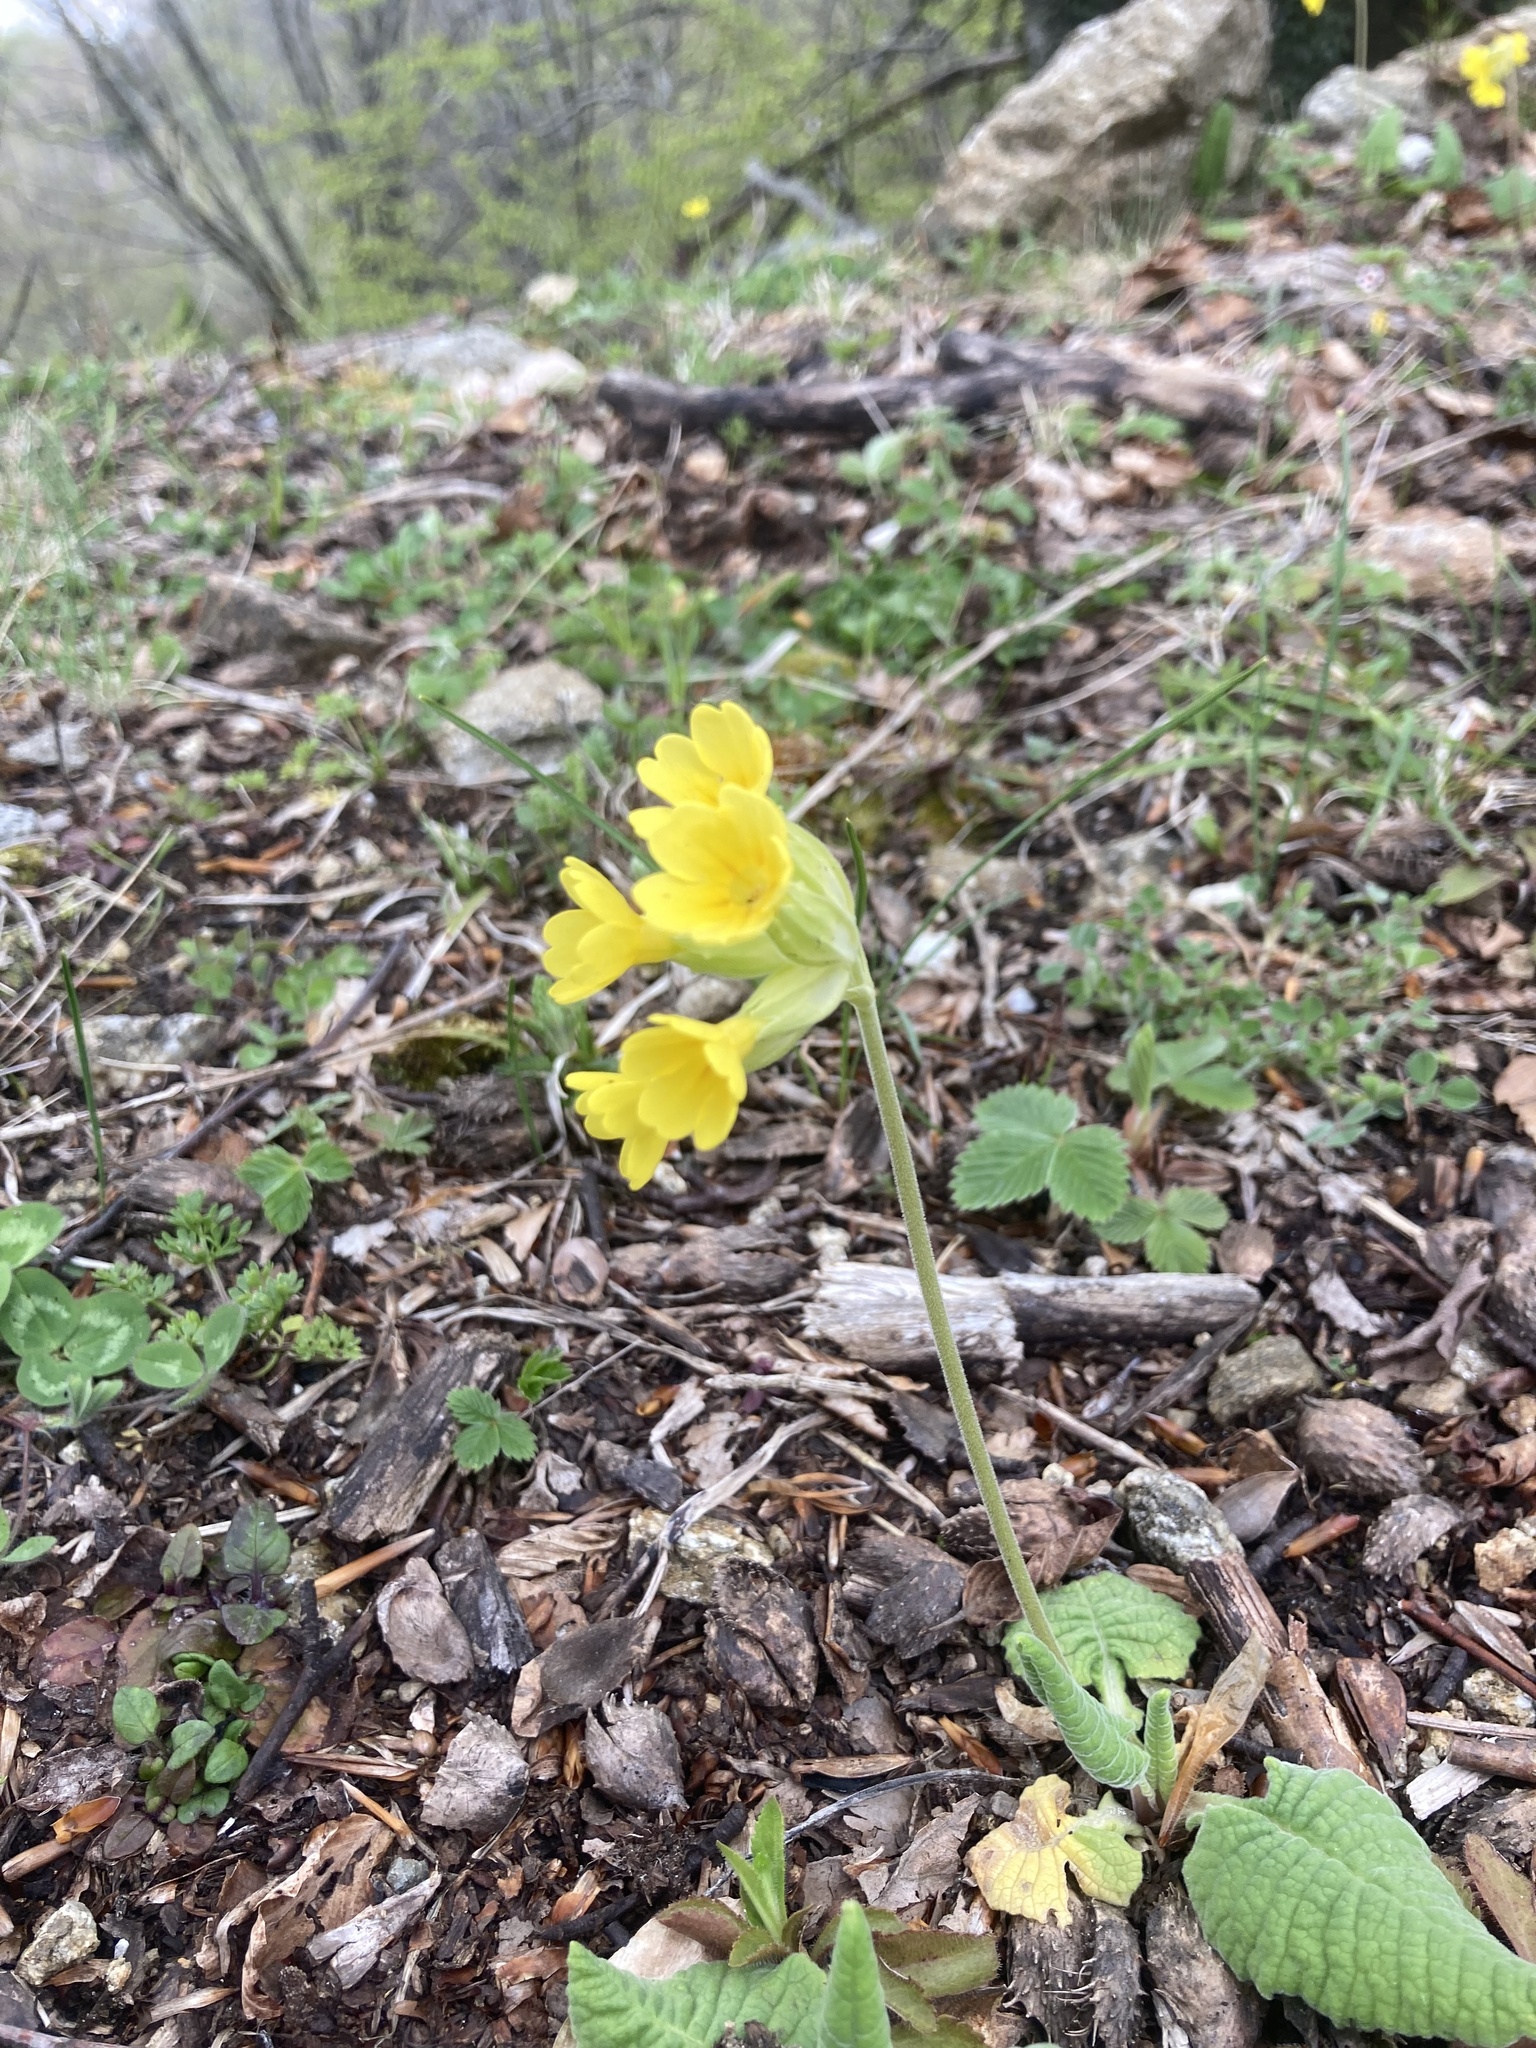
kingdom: Plantae
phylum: Tracheophyta
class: Magnoliopsida
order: Ericales
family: Primulaceae
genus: Primula
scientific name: Primula veris
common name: Cowslip
